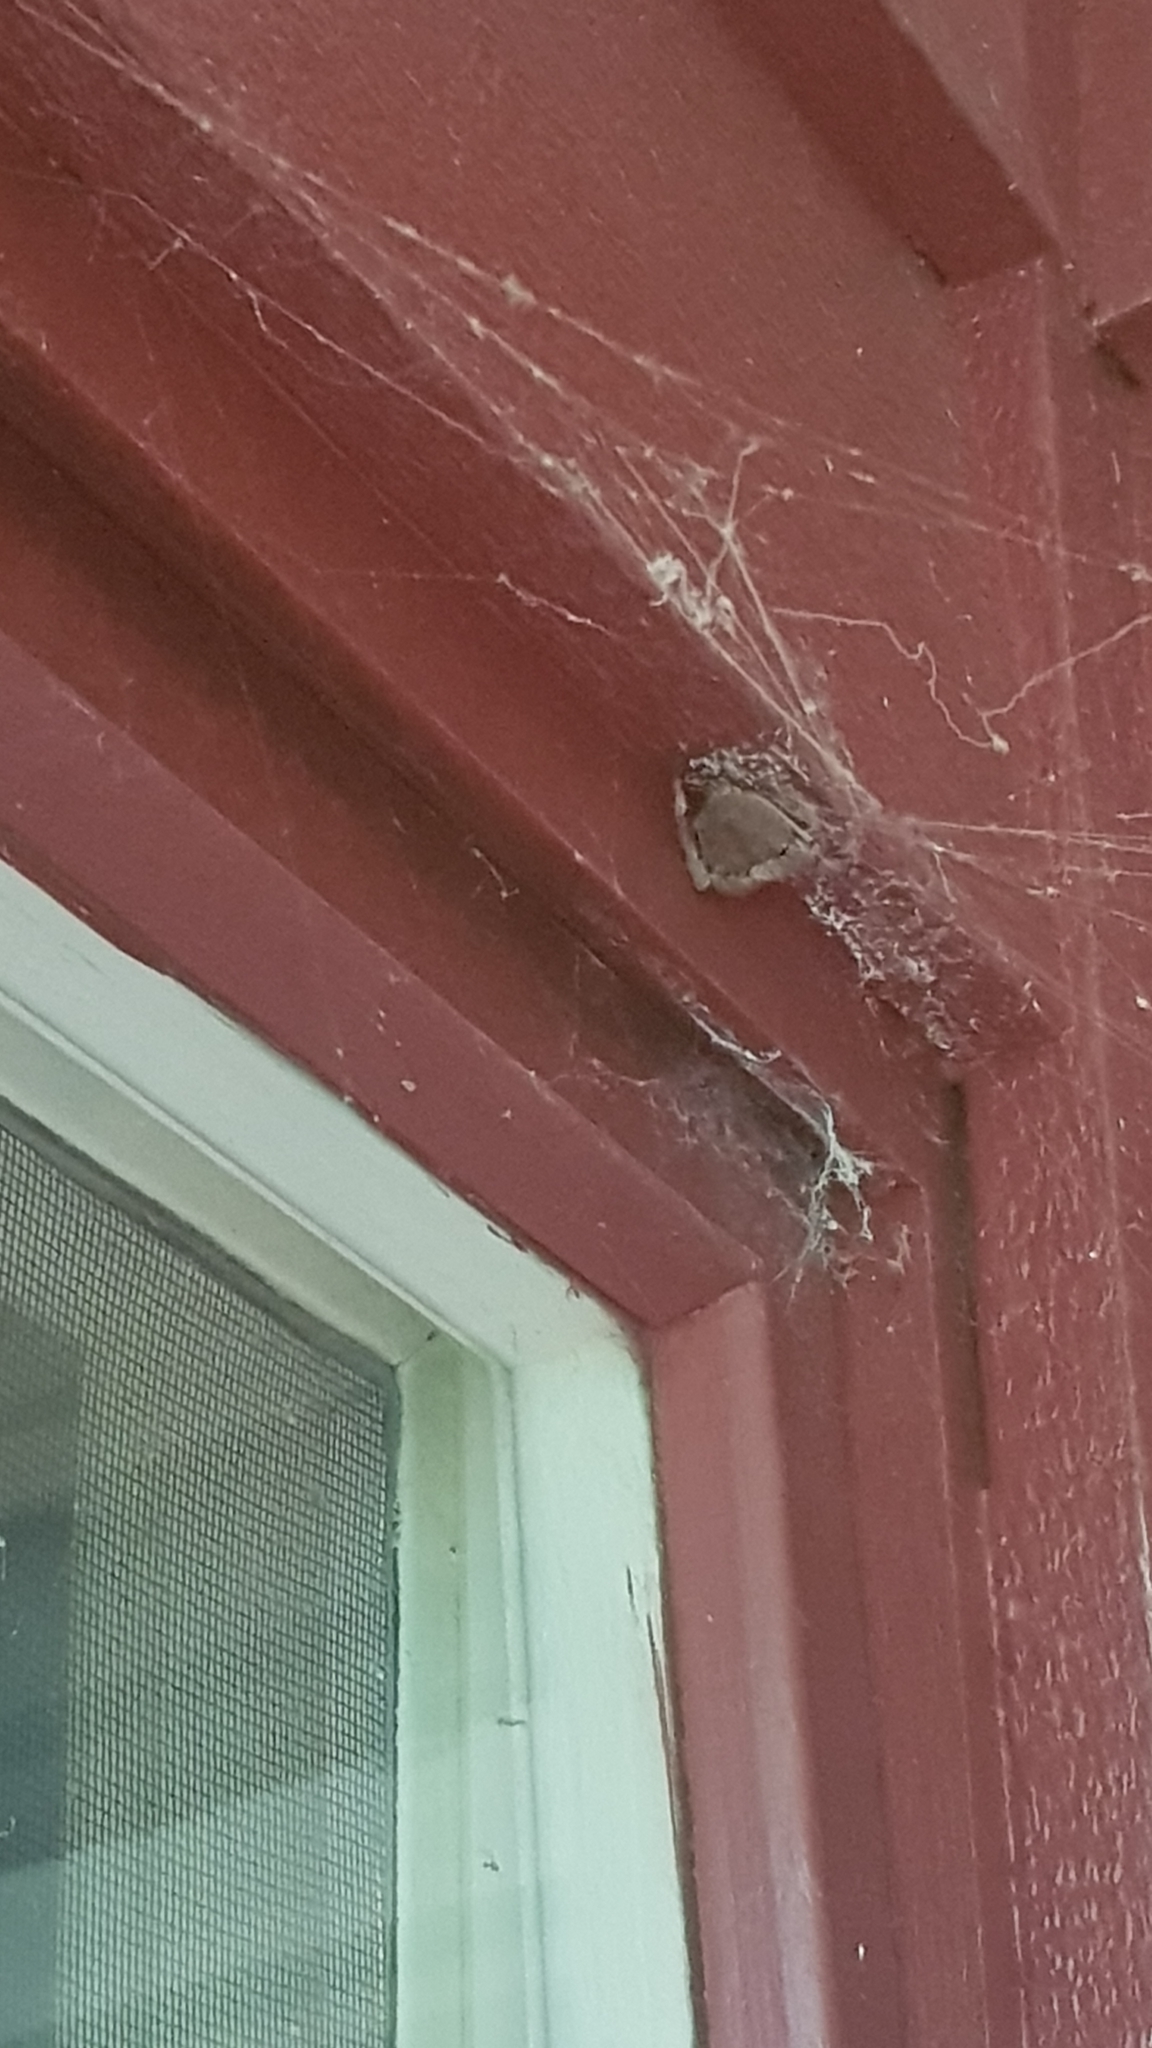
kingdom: Animalia
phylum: Arthropoda
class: Arachnida
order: Araneae
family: Araneidae
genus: Hortophora
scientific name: Hortophora transmarina
